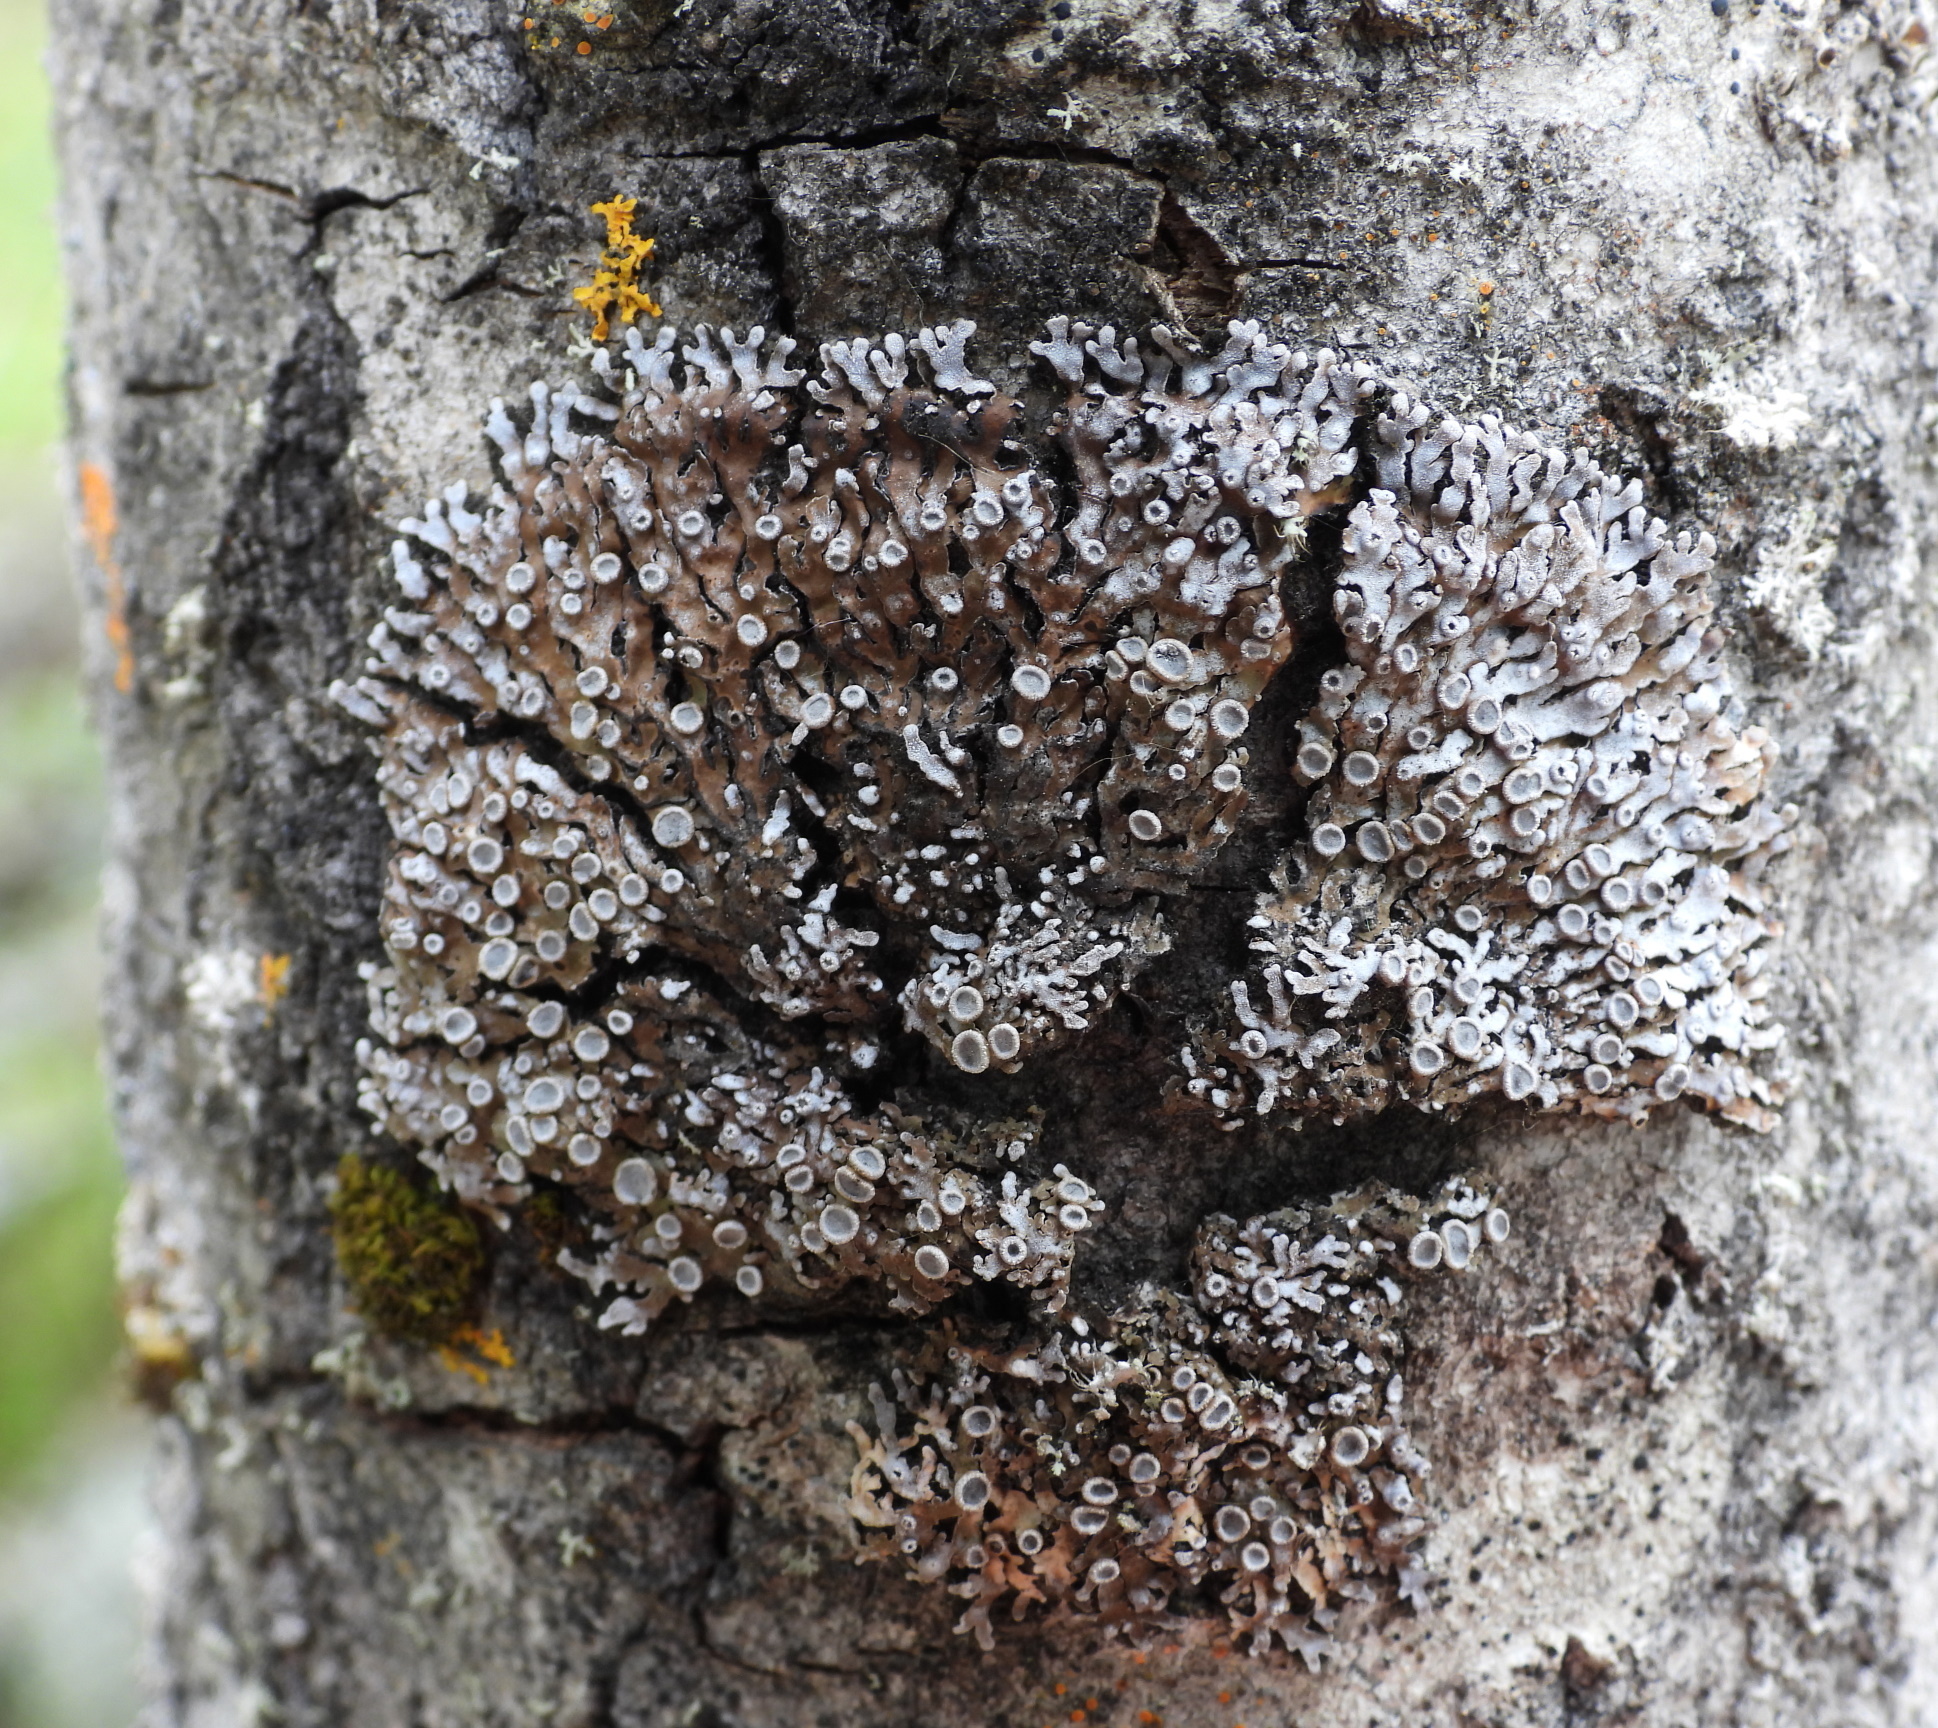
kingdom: Fungi
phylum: Ascomycota
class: Lecanoromycetes
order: Caliciales
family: Physciaceae
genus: Physconia
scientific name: Physconia distorta
